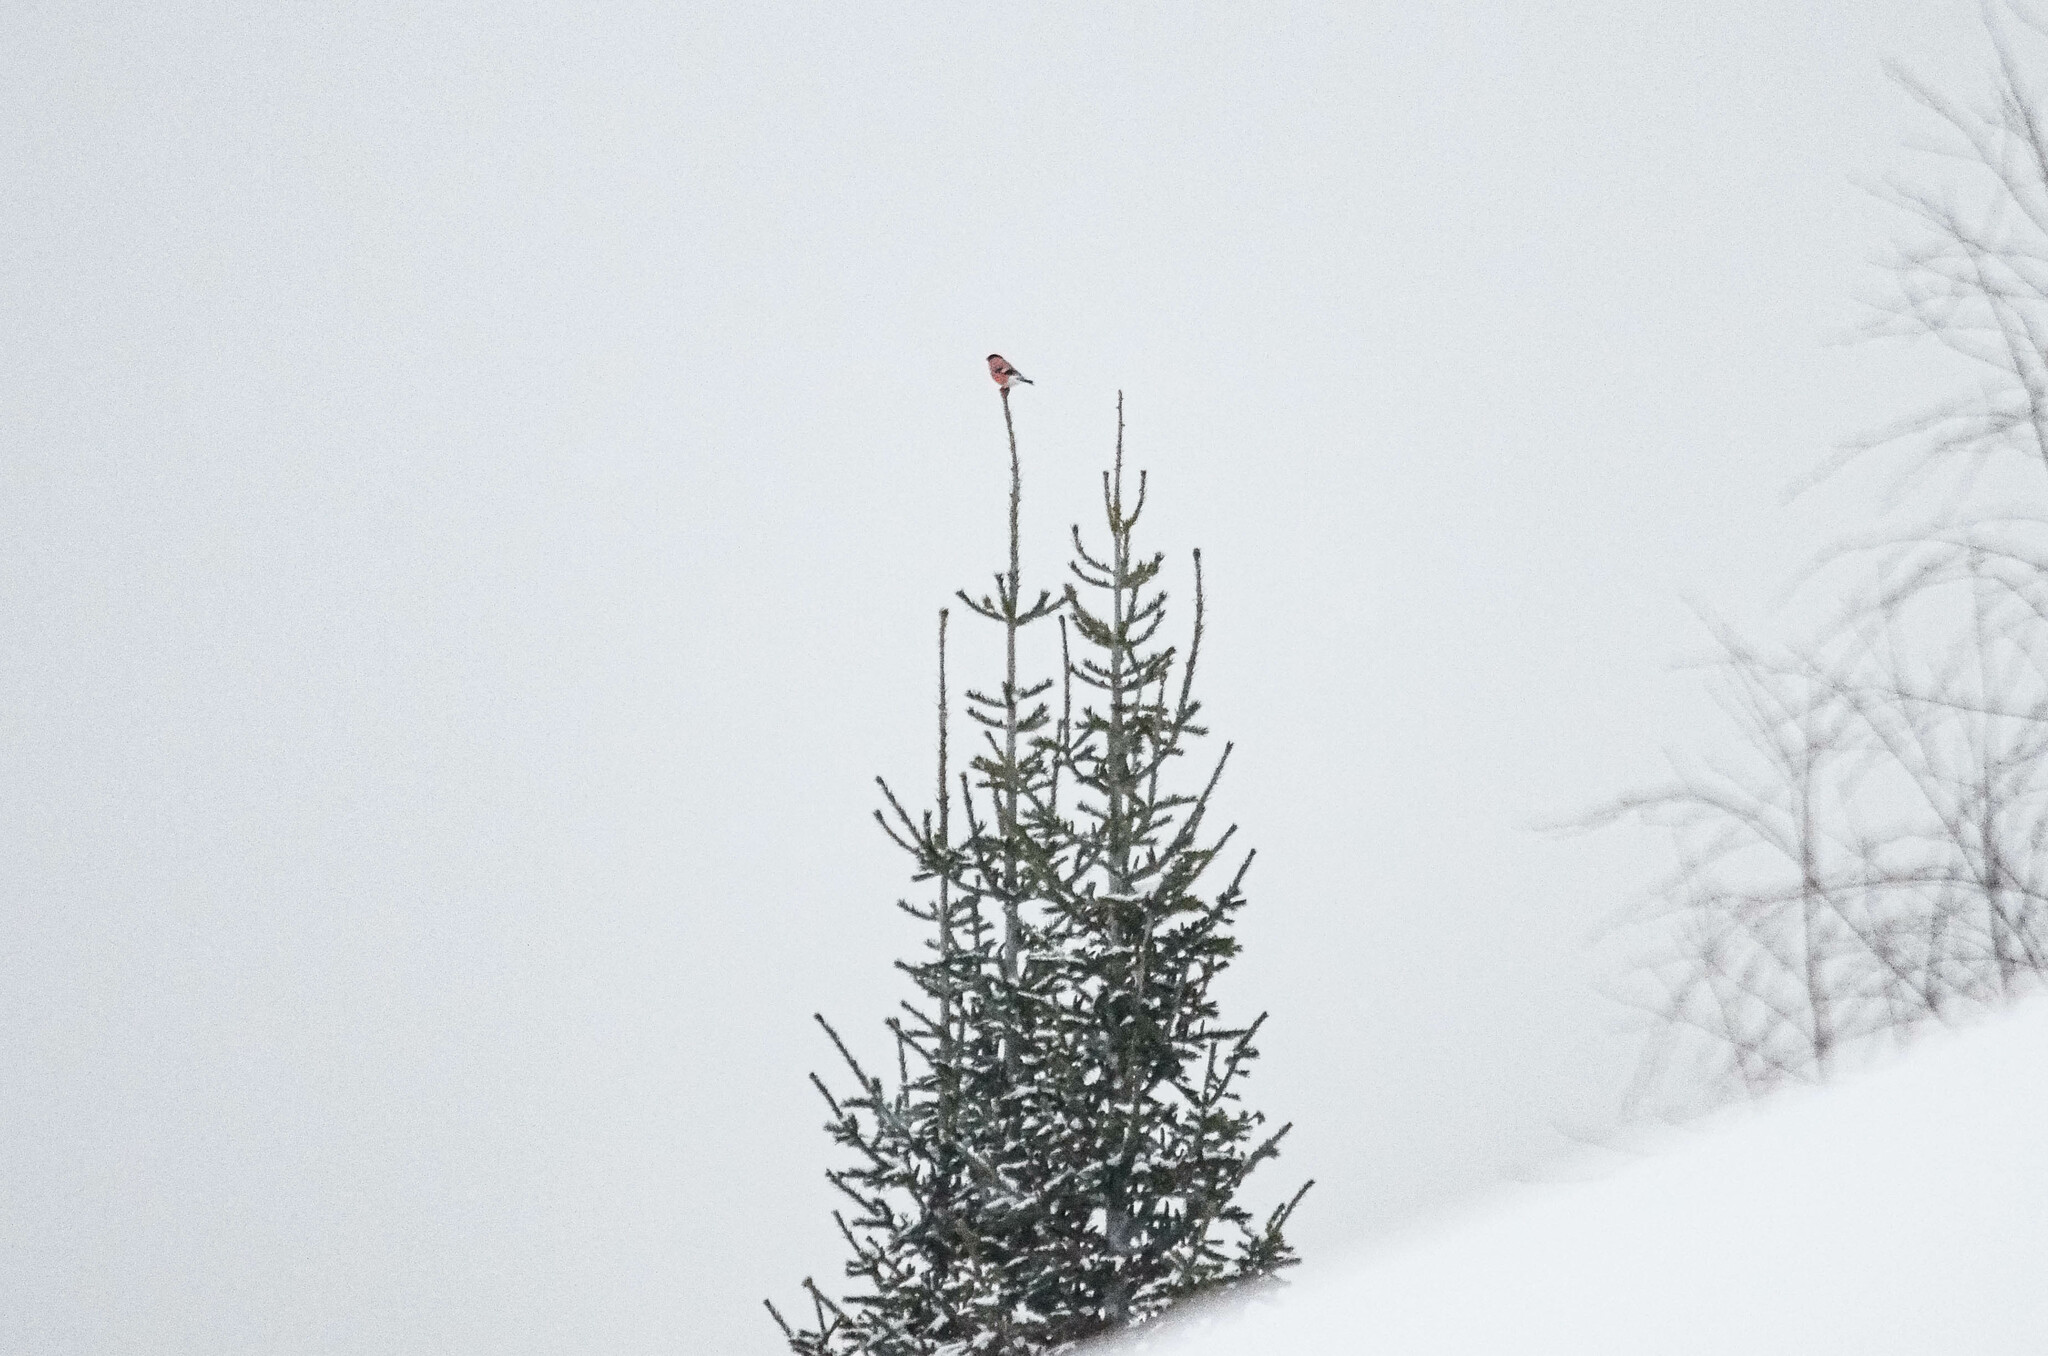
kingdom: Animalia
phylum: Chordata
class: Aves
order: Passeriformes
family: Fringillidae
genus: Pyrrhula
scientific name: Pyrrhula pyrrhula
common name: Eurasian bullfinch
